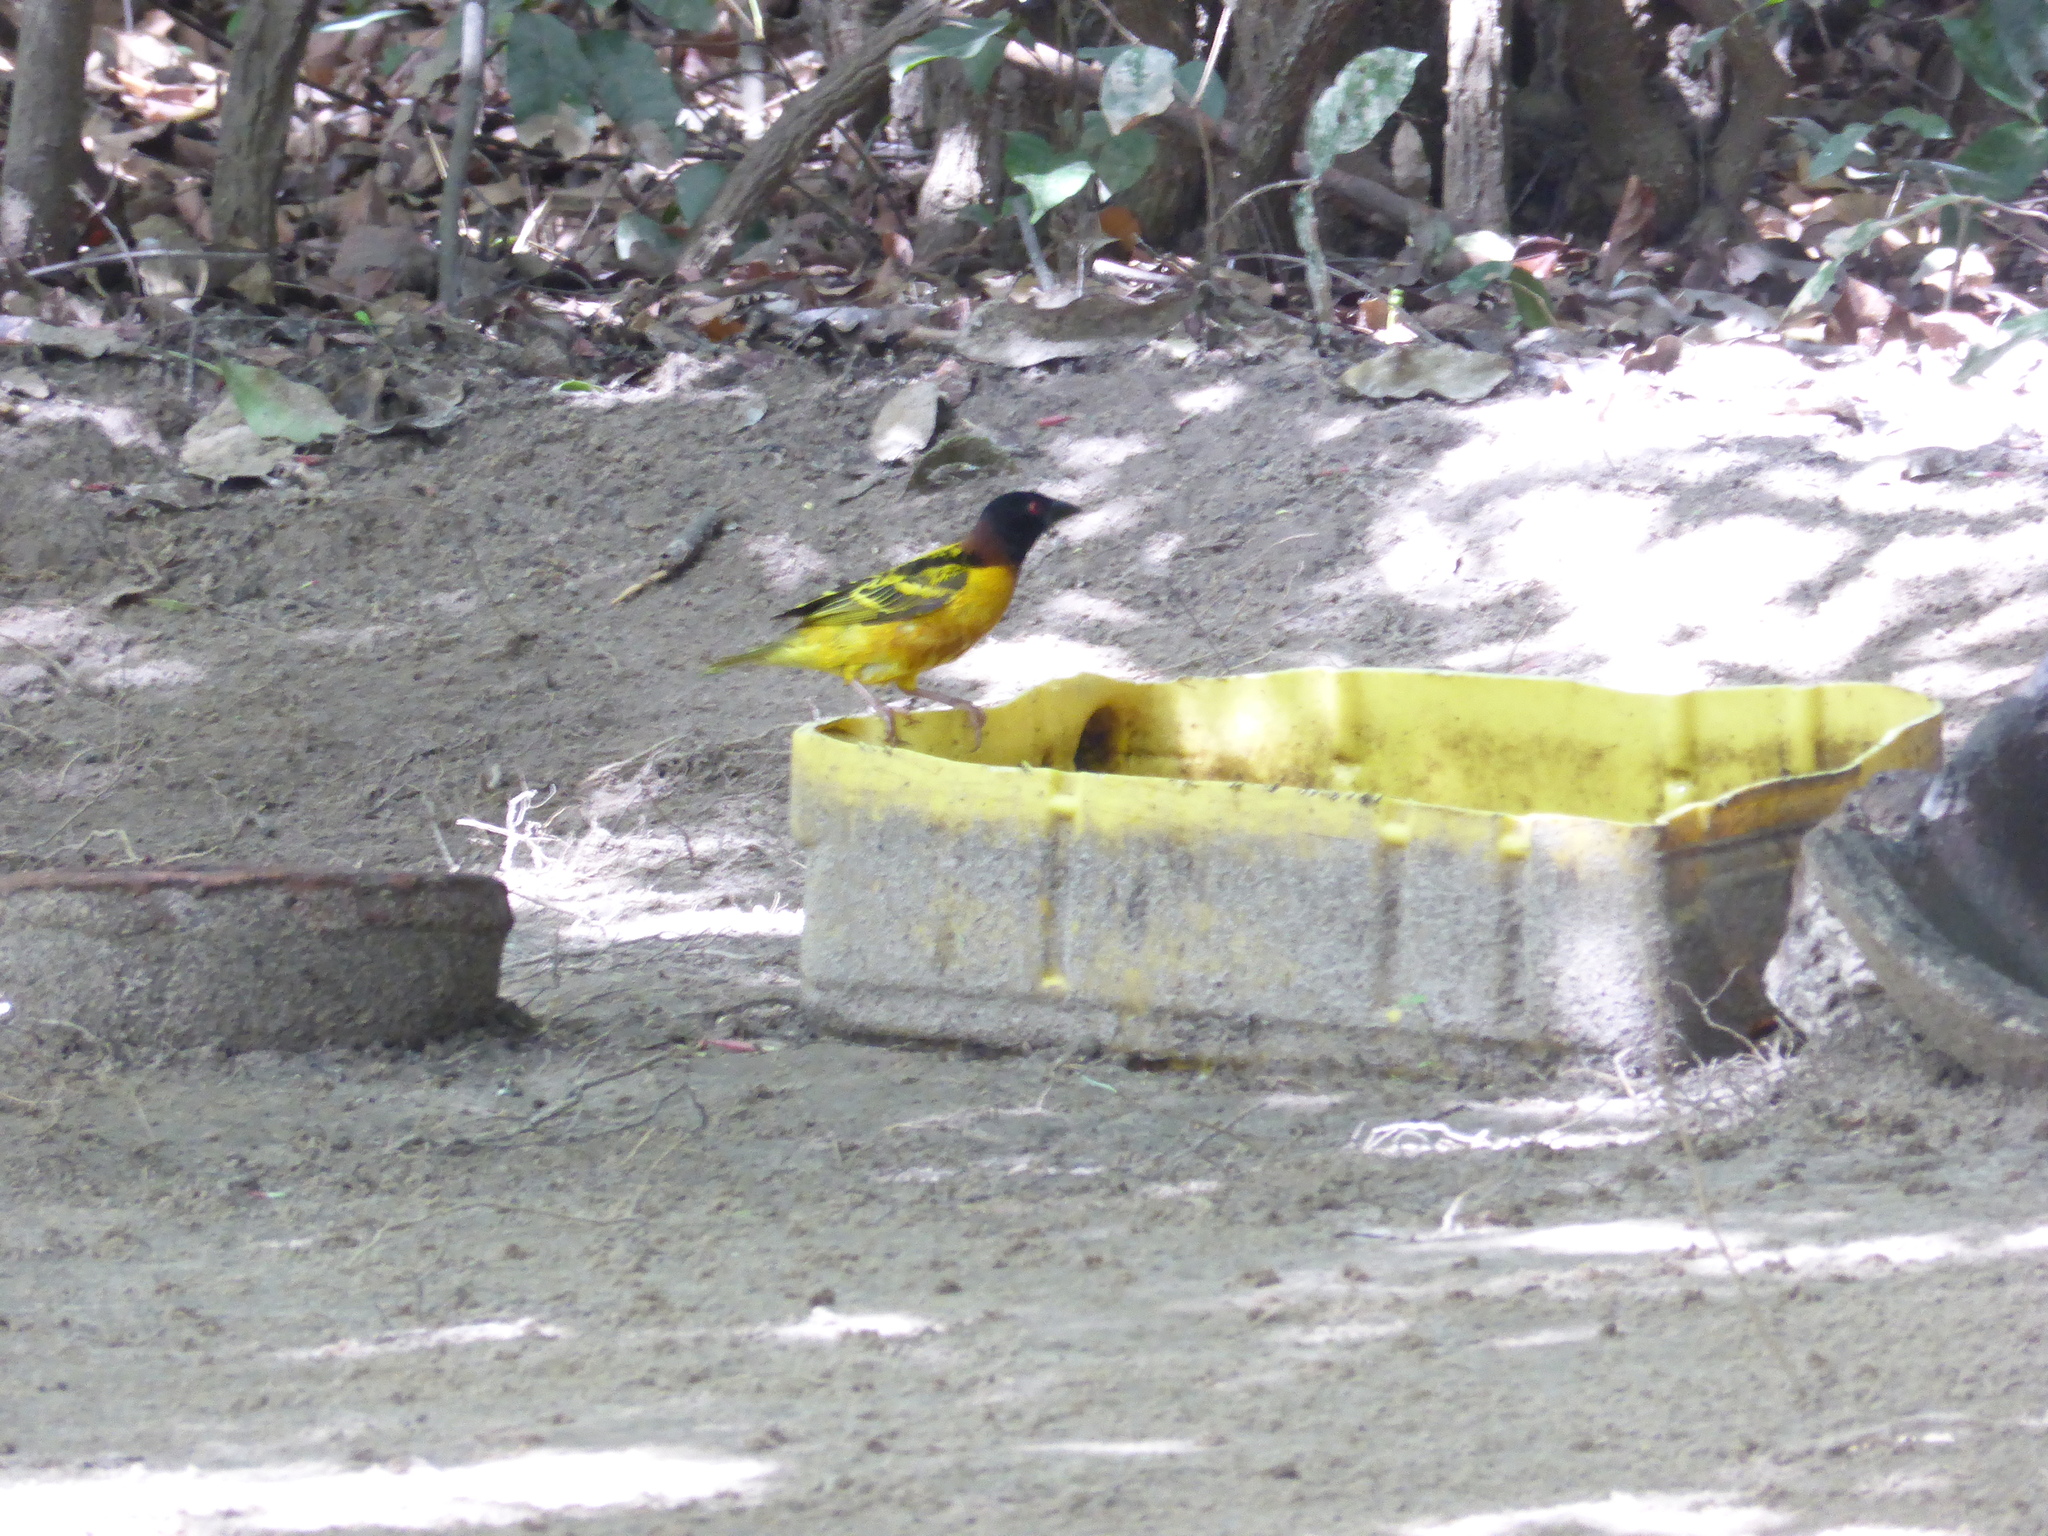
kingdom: Animalia
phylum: Chordata
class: Aves
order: Passeriformes
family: Ploceidae
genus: Ploceus
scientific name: Ploceus cucullatus
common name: Village weaver
